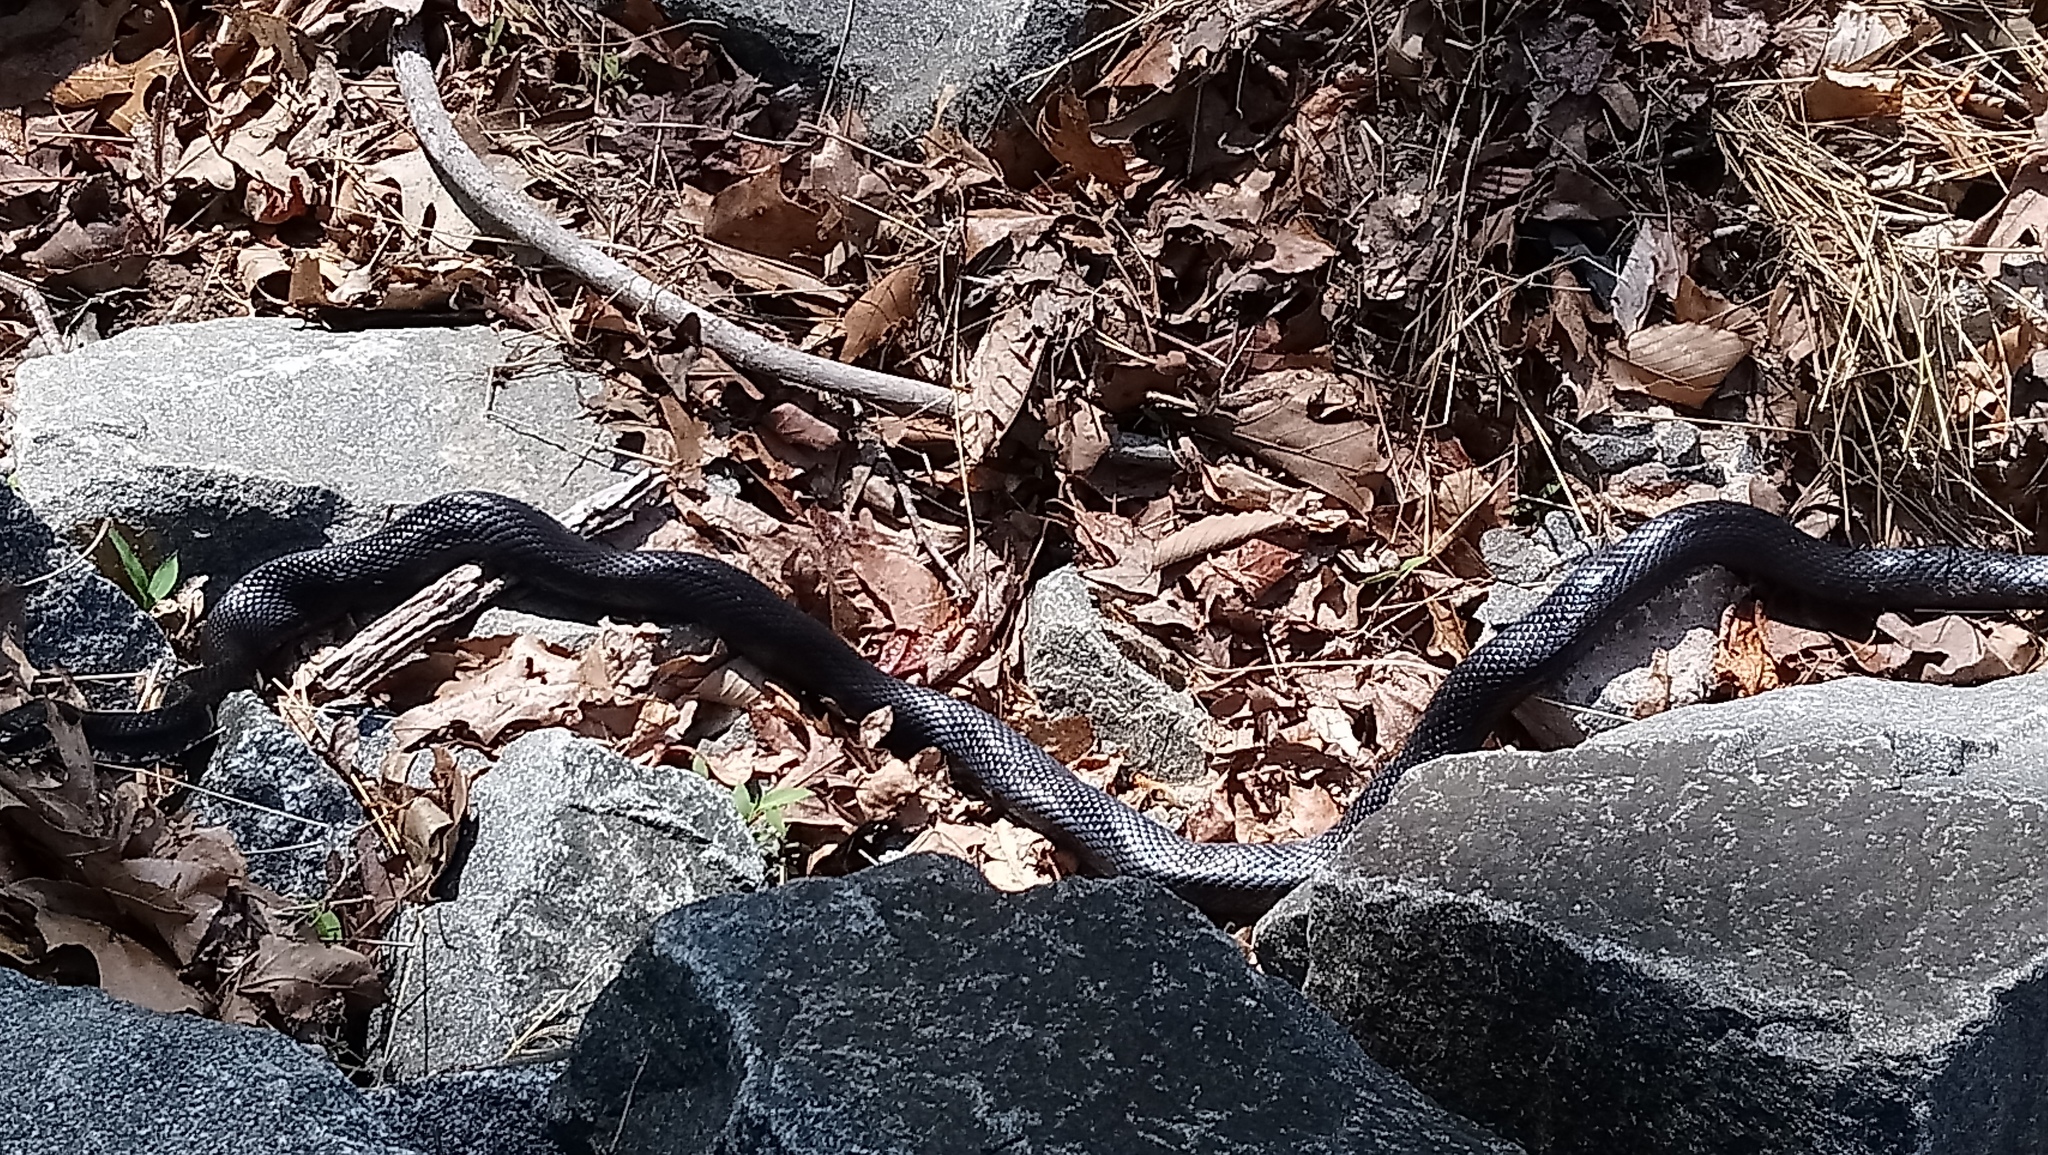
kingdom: Animalia
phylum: Chordata
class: Squamata
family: Colubridae
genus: Pantherophis
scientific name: Pantherophis alleghaniensis
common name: Eastern rat snake
